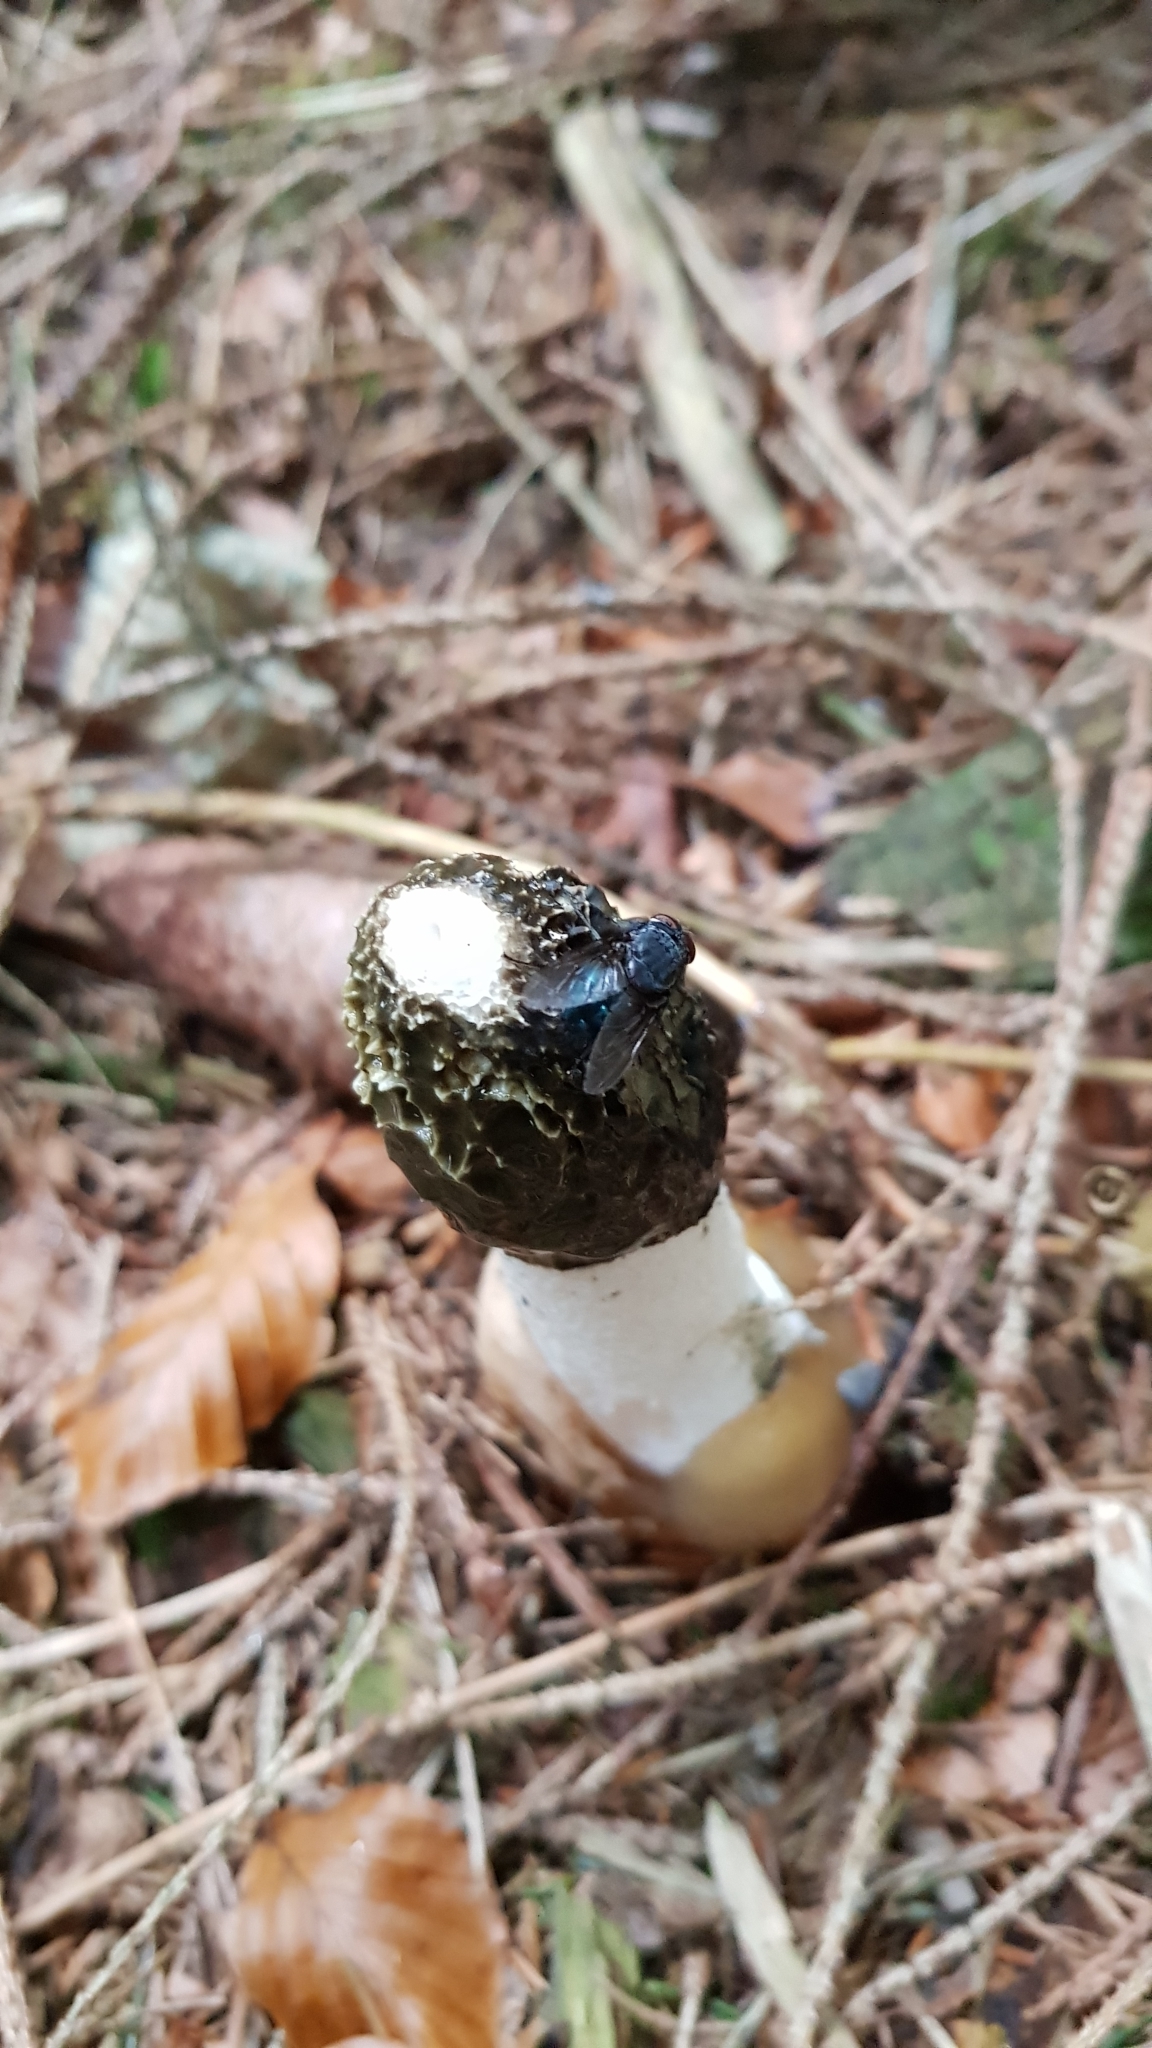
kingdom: Fungi
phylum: Basidiomycota
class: Agaricomycetes
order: Phallales
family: Phallaceae
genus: Phallus
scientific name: Phallus impudicus
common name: Common stinkhorn
